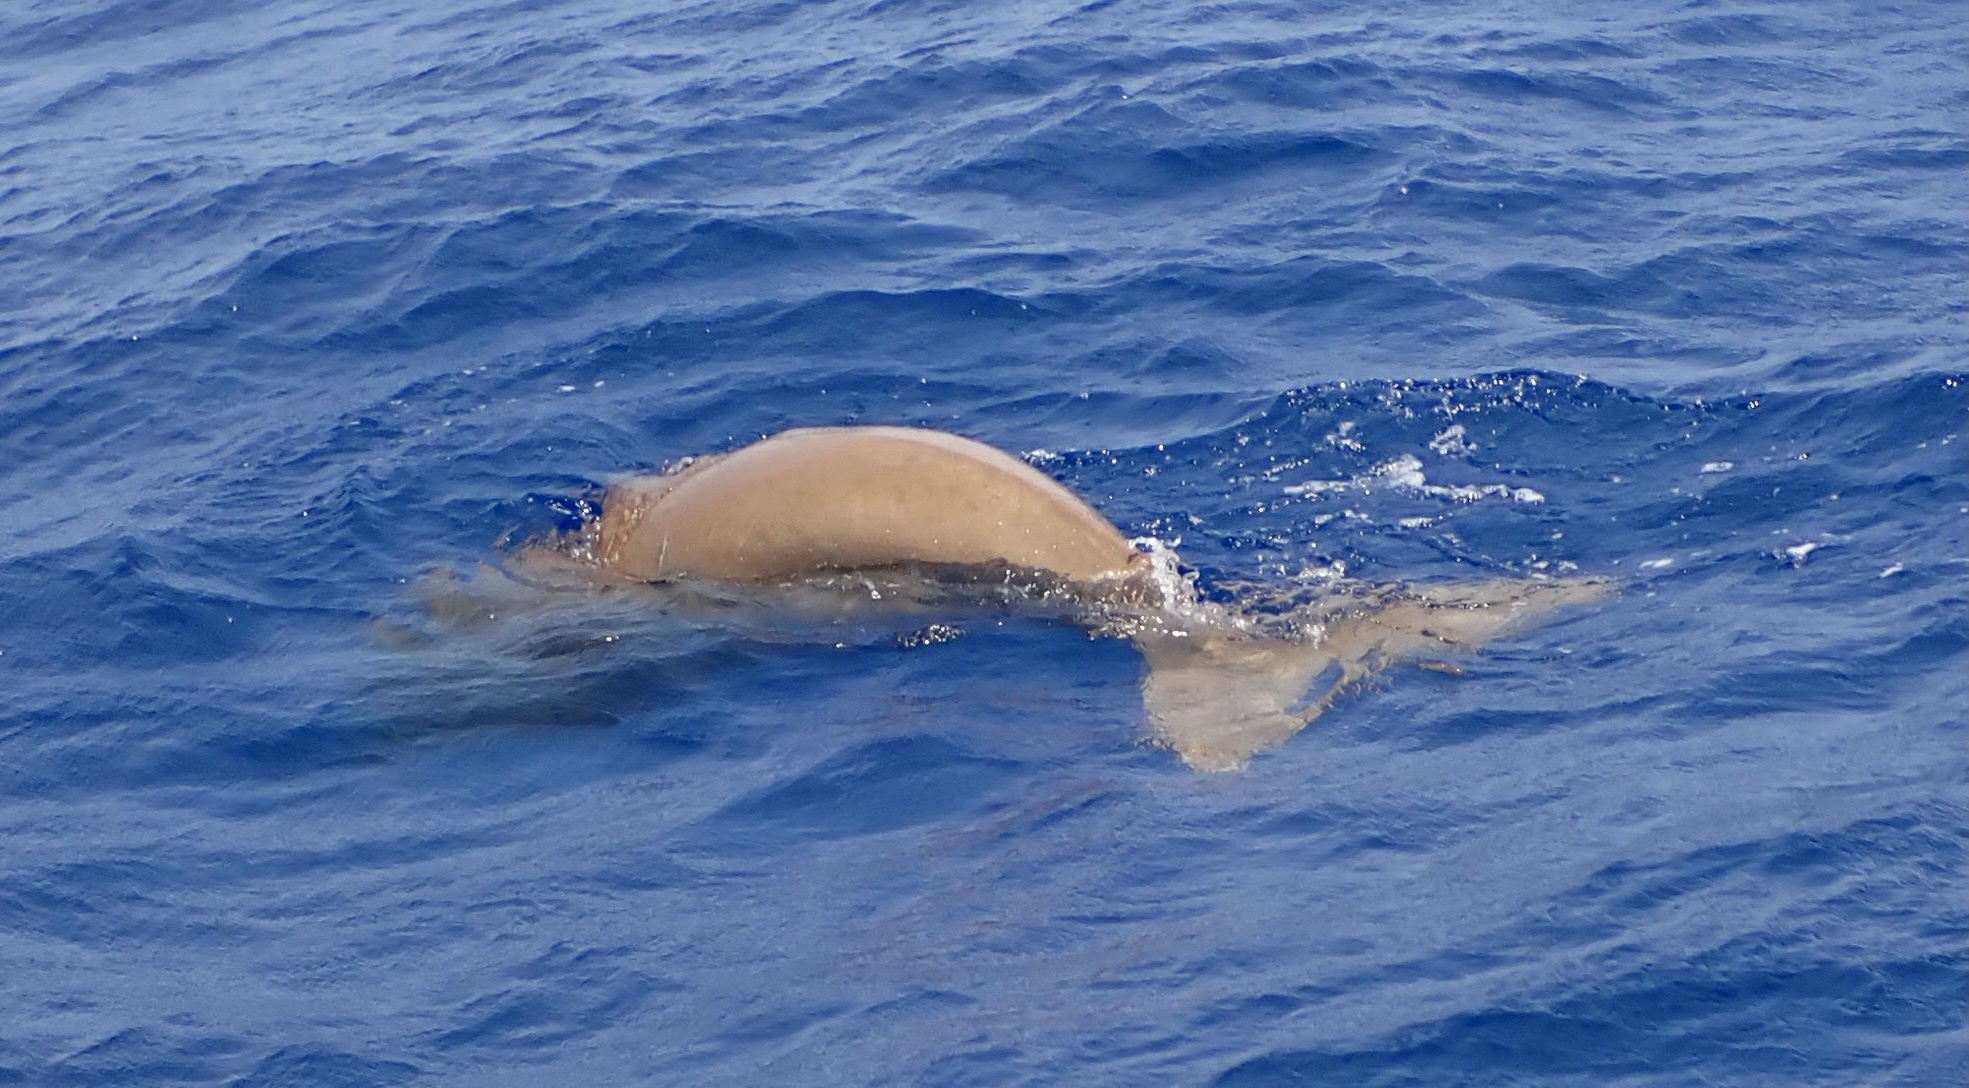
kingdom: Animalia
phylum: Chordata
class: Mammalia
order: Sirenia
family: Dugongidae
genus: Dugong
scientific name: Dugong dugon
